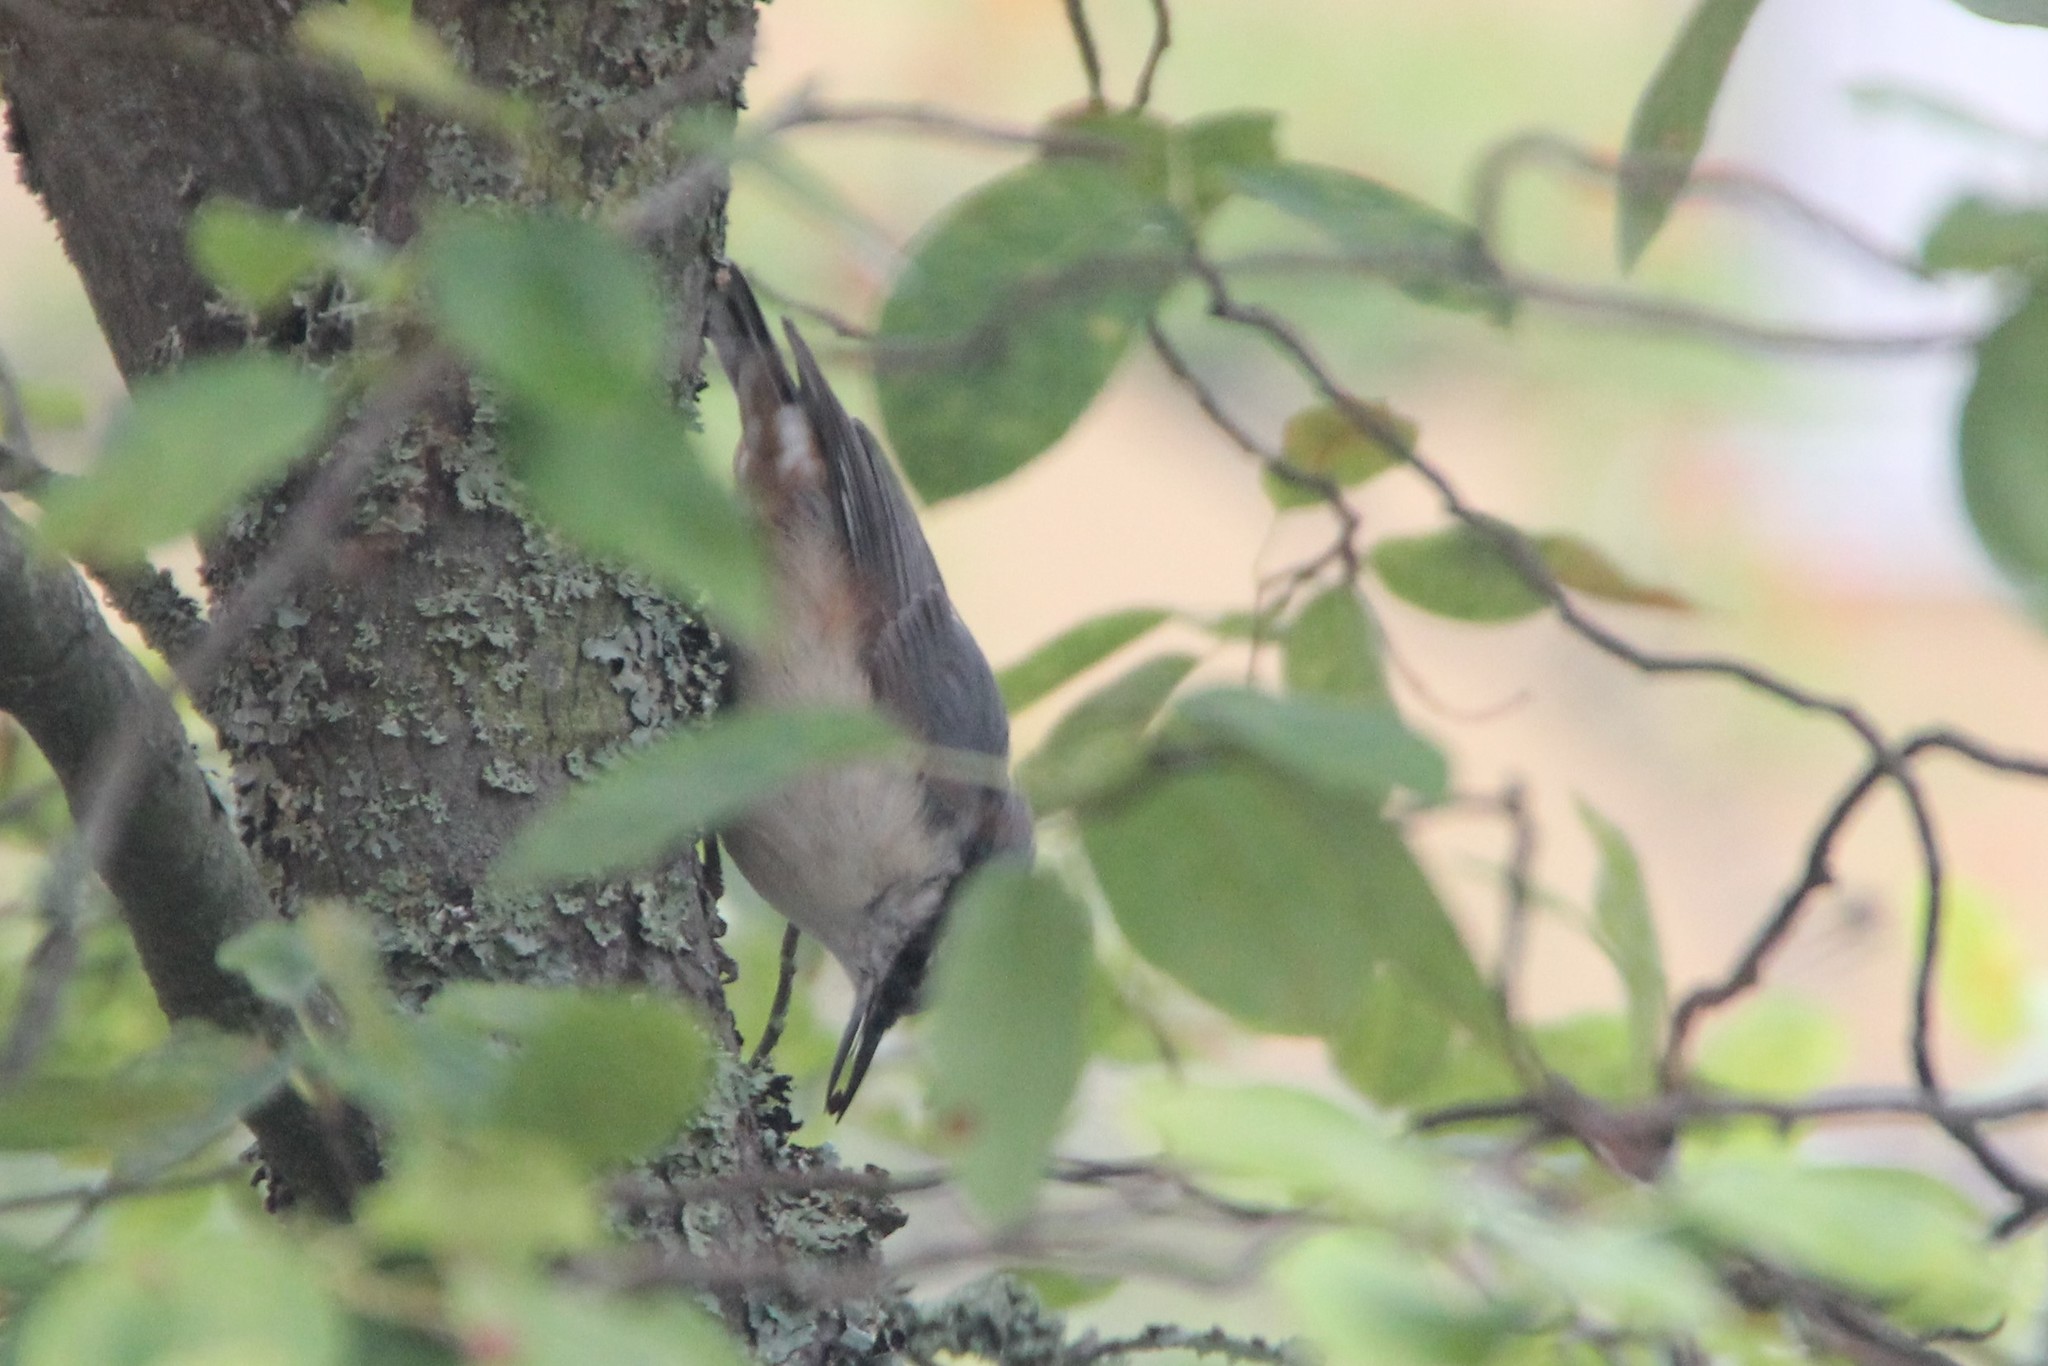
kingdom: Animalia
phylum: Chordata
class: Aves
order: Passeriformes
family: Sittidae
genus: Sitta
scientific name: Sitta europaea
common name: Eurasian nuthatch
